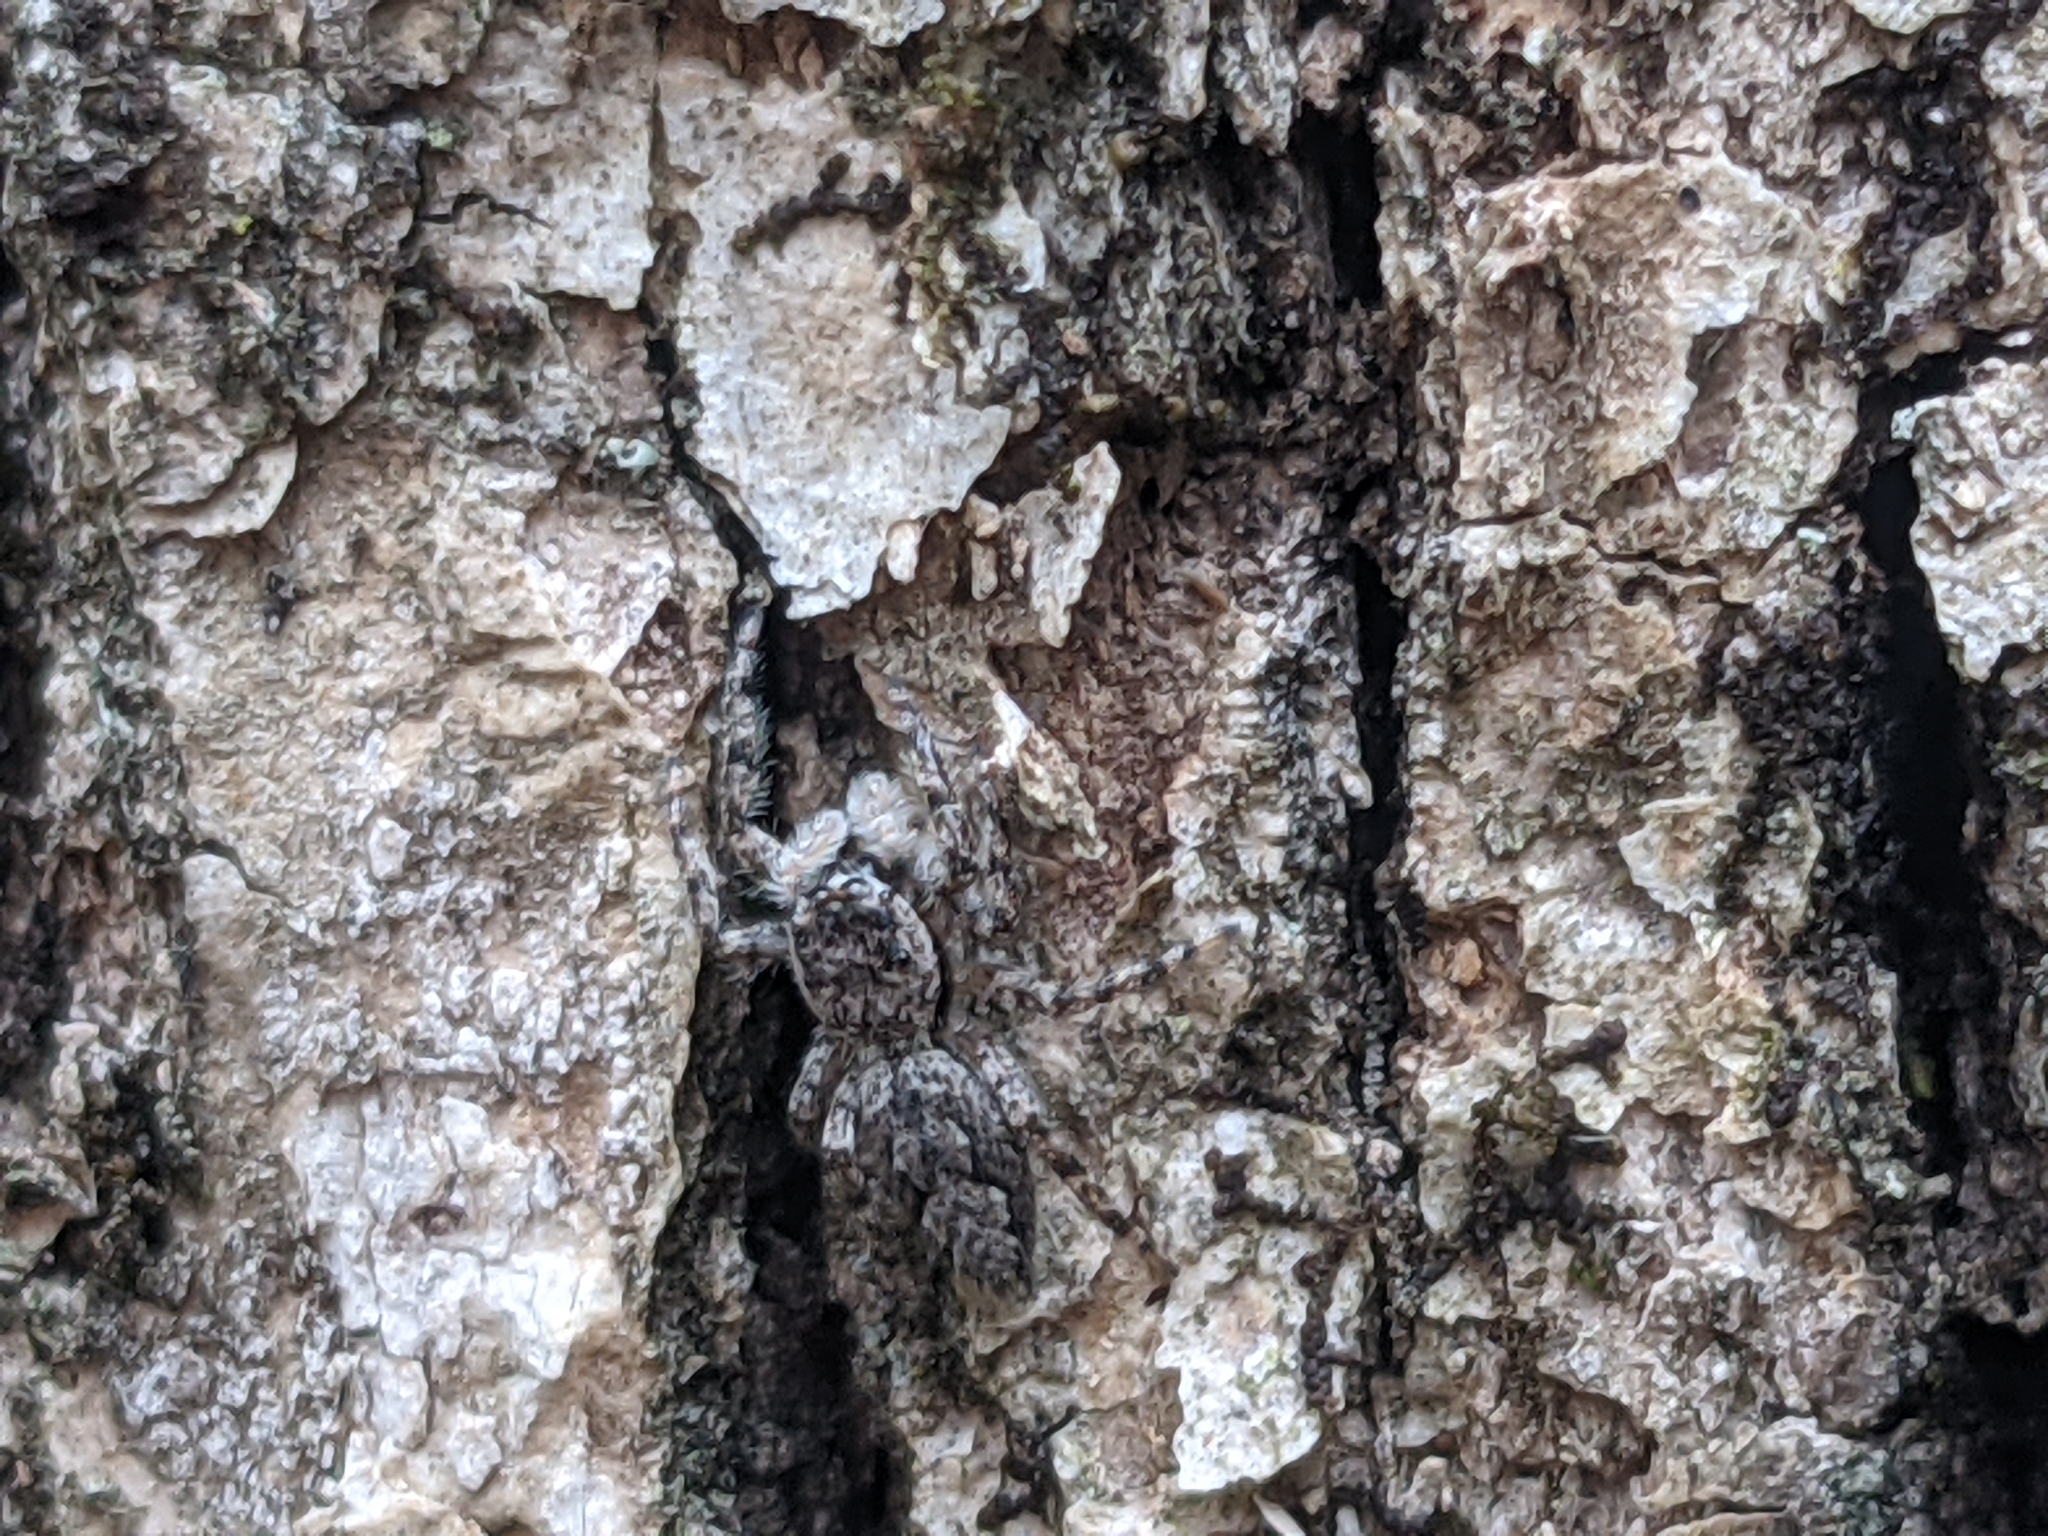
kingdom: Animalia
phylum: Arthropoda
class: Arachnida
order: Araneae
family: Salticidae
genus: Platycryptus
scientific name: Platycryptus undatus
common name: Tan jumping spider
